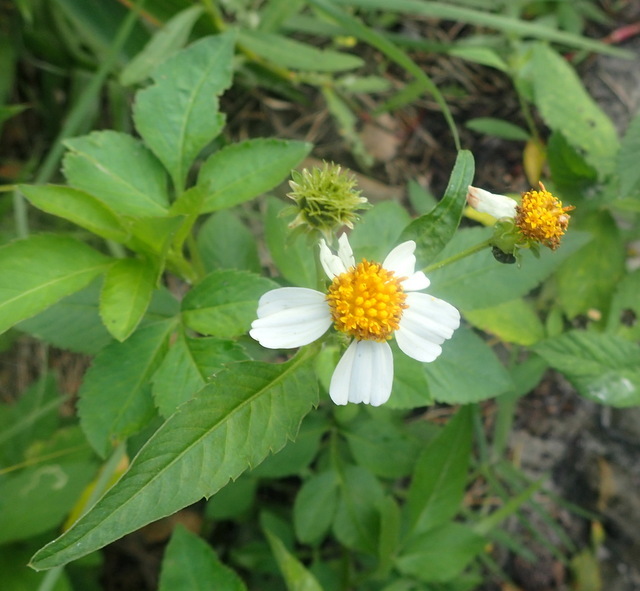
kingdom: Plantae
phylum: Tracheophyta
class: Magnoliopsida
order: Asterales
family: Asteraceae
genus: Bidens
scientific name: Bidens alba
